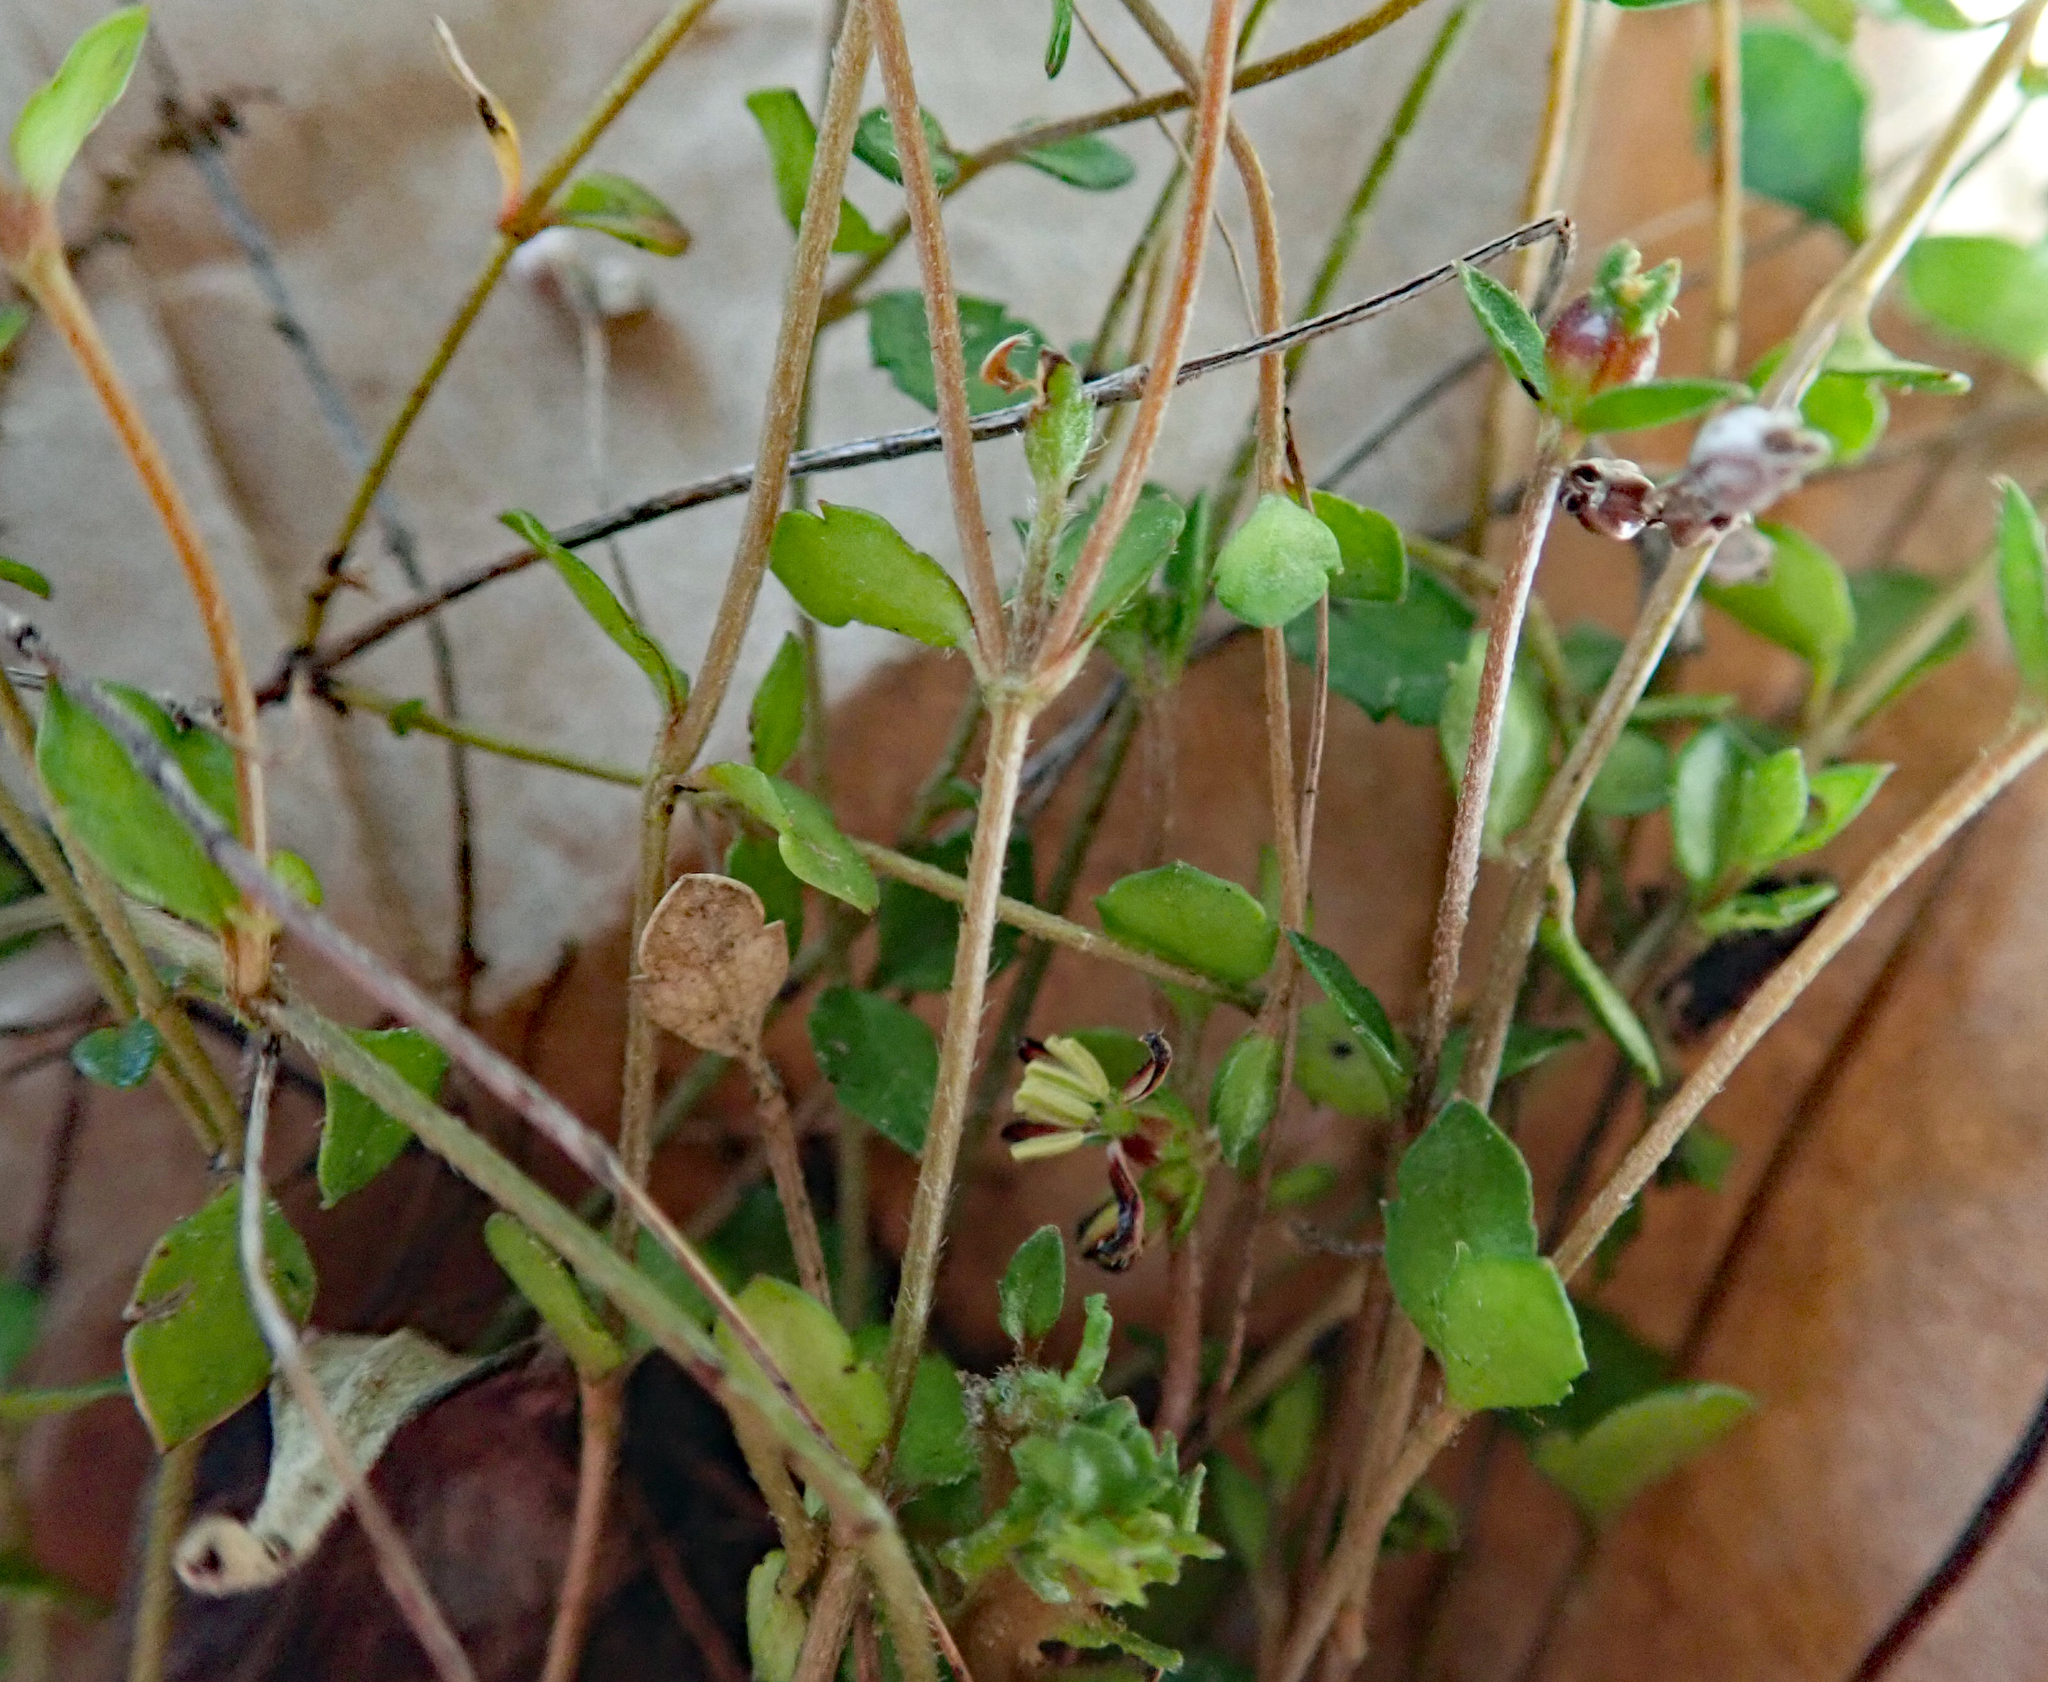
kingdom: Plantae
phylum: Tracheophyta
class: Magnoliopsida
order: Saxifragales
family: Haloragaceae
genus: Gonocarpus
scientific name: Gonocarpus aggregatus
